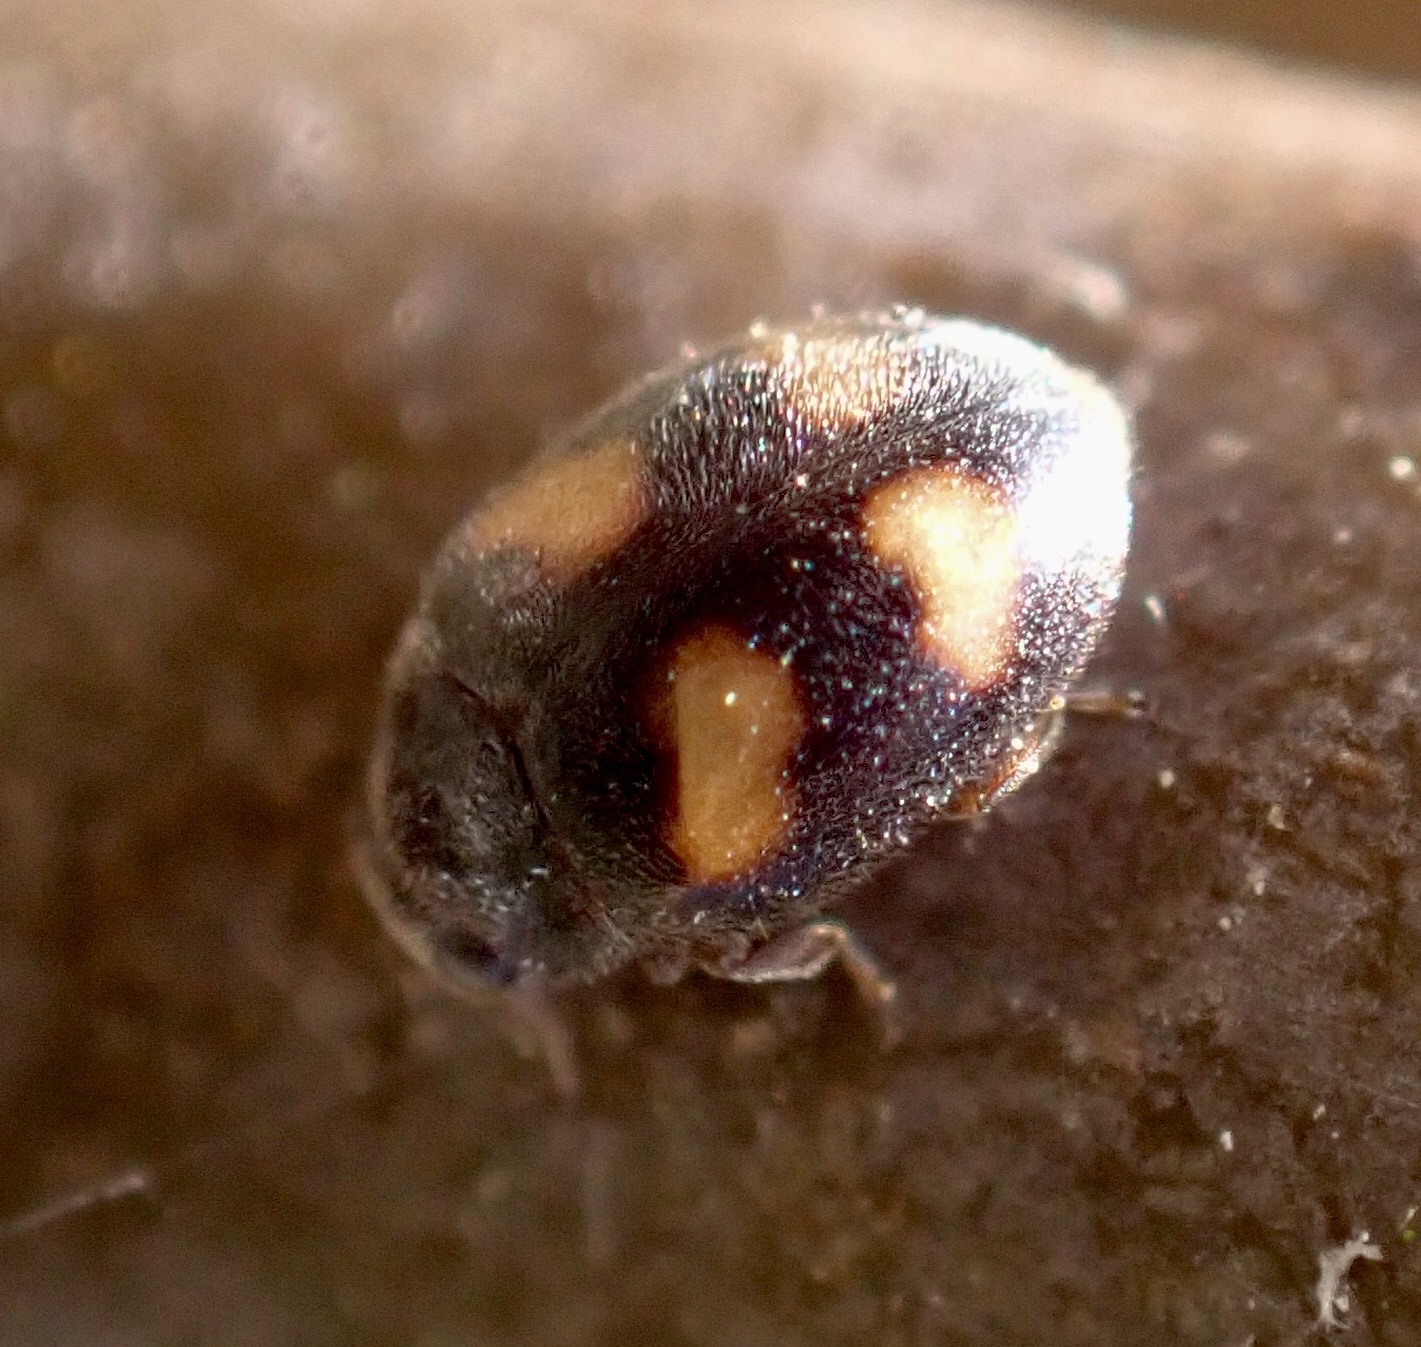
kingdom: Animalia
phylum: Arthropoda
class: Insecta
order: Coleoptera
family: Coccinellidae
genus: Nephus
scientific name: Nephus quadrimaculatus
